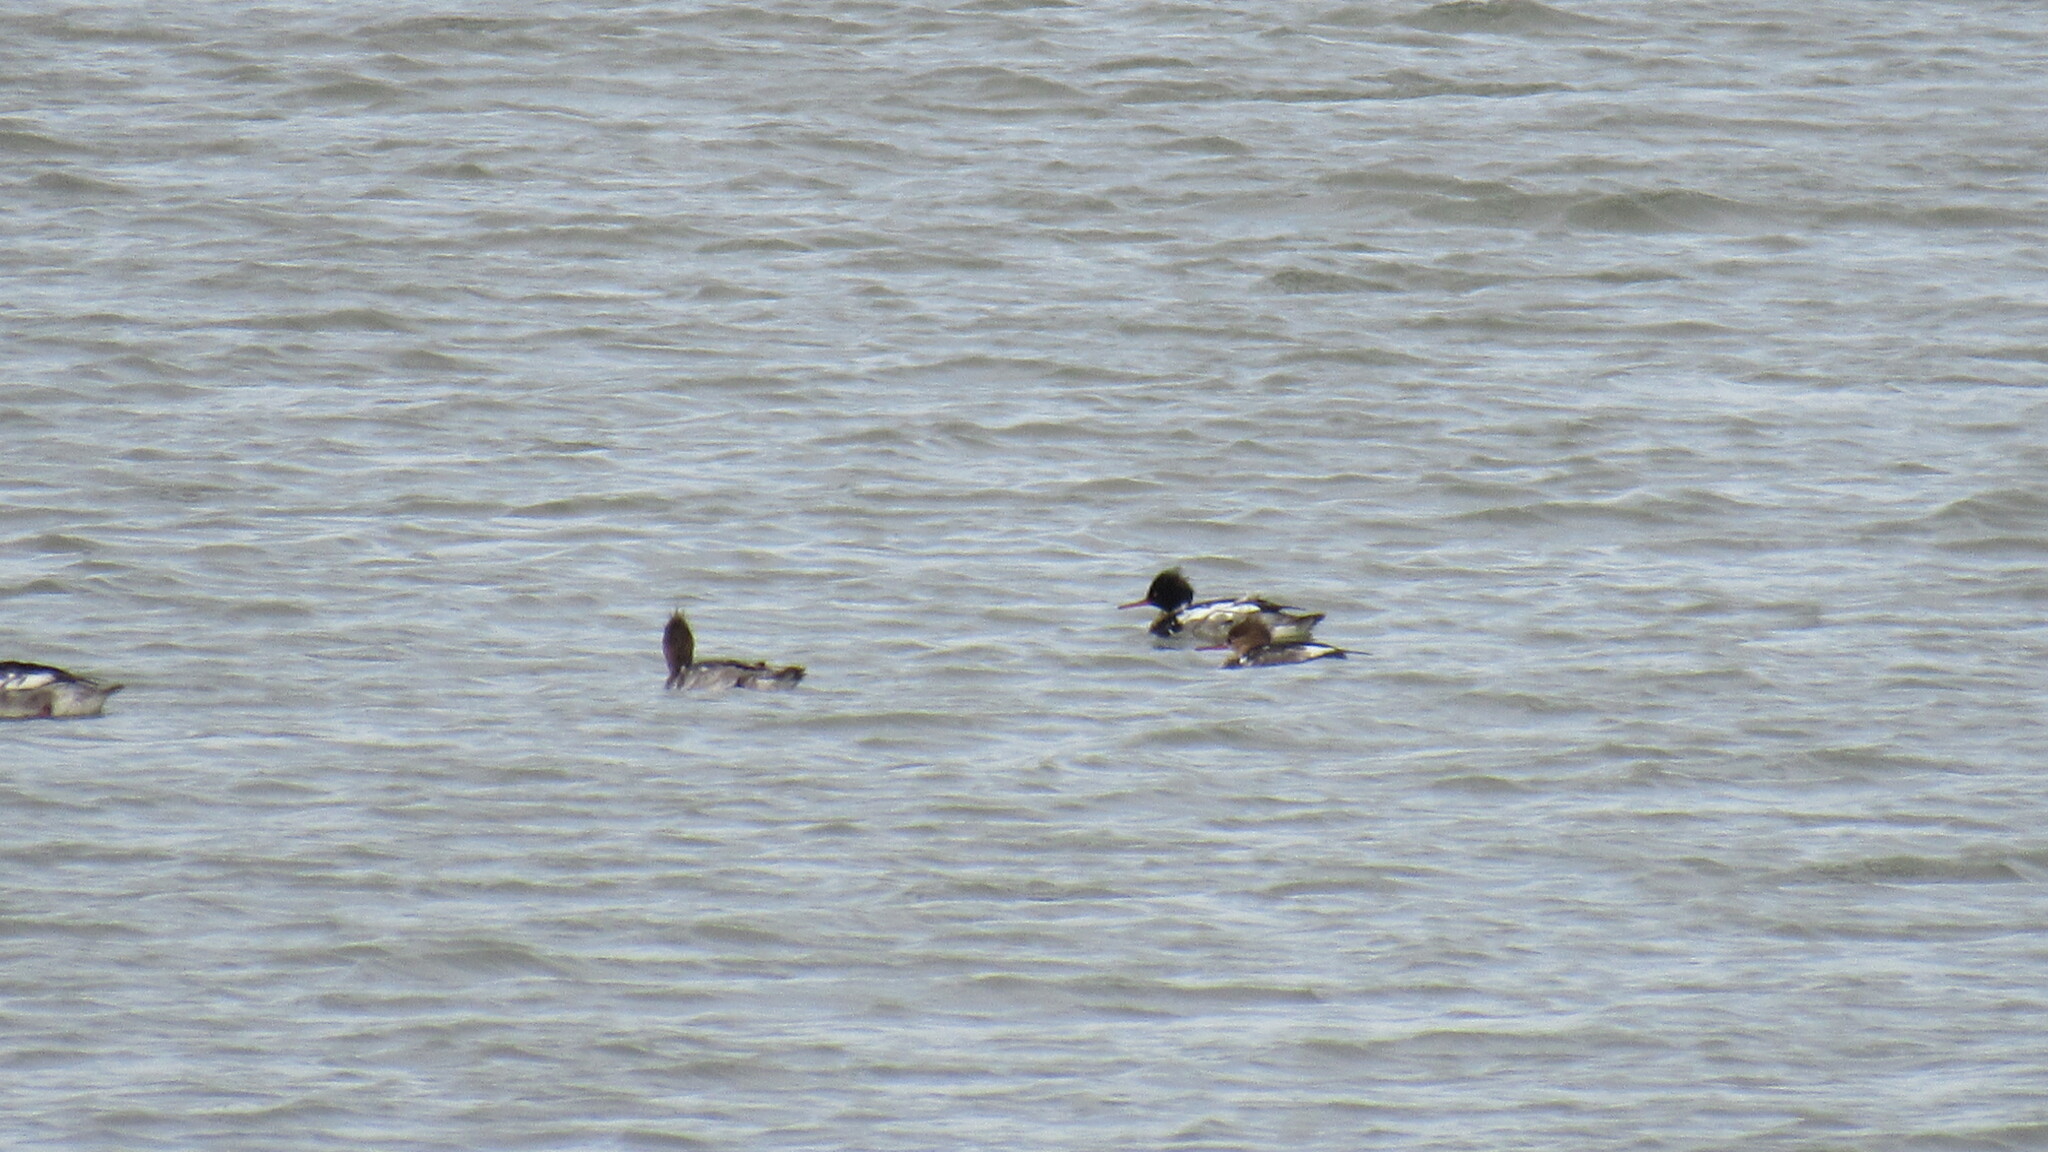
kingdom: Animalia
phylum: Chordata
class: Aves
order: Anseriformes
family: Anatidae
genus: Mergus
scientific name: Mergus serrator
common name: Red-breasted merganser
